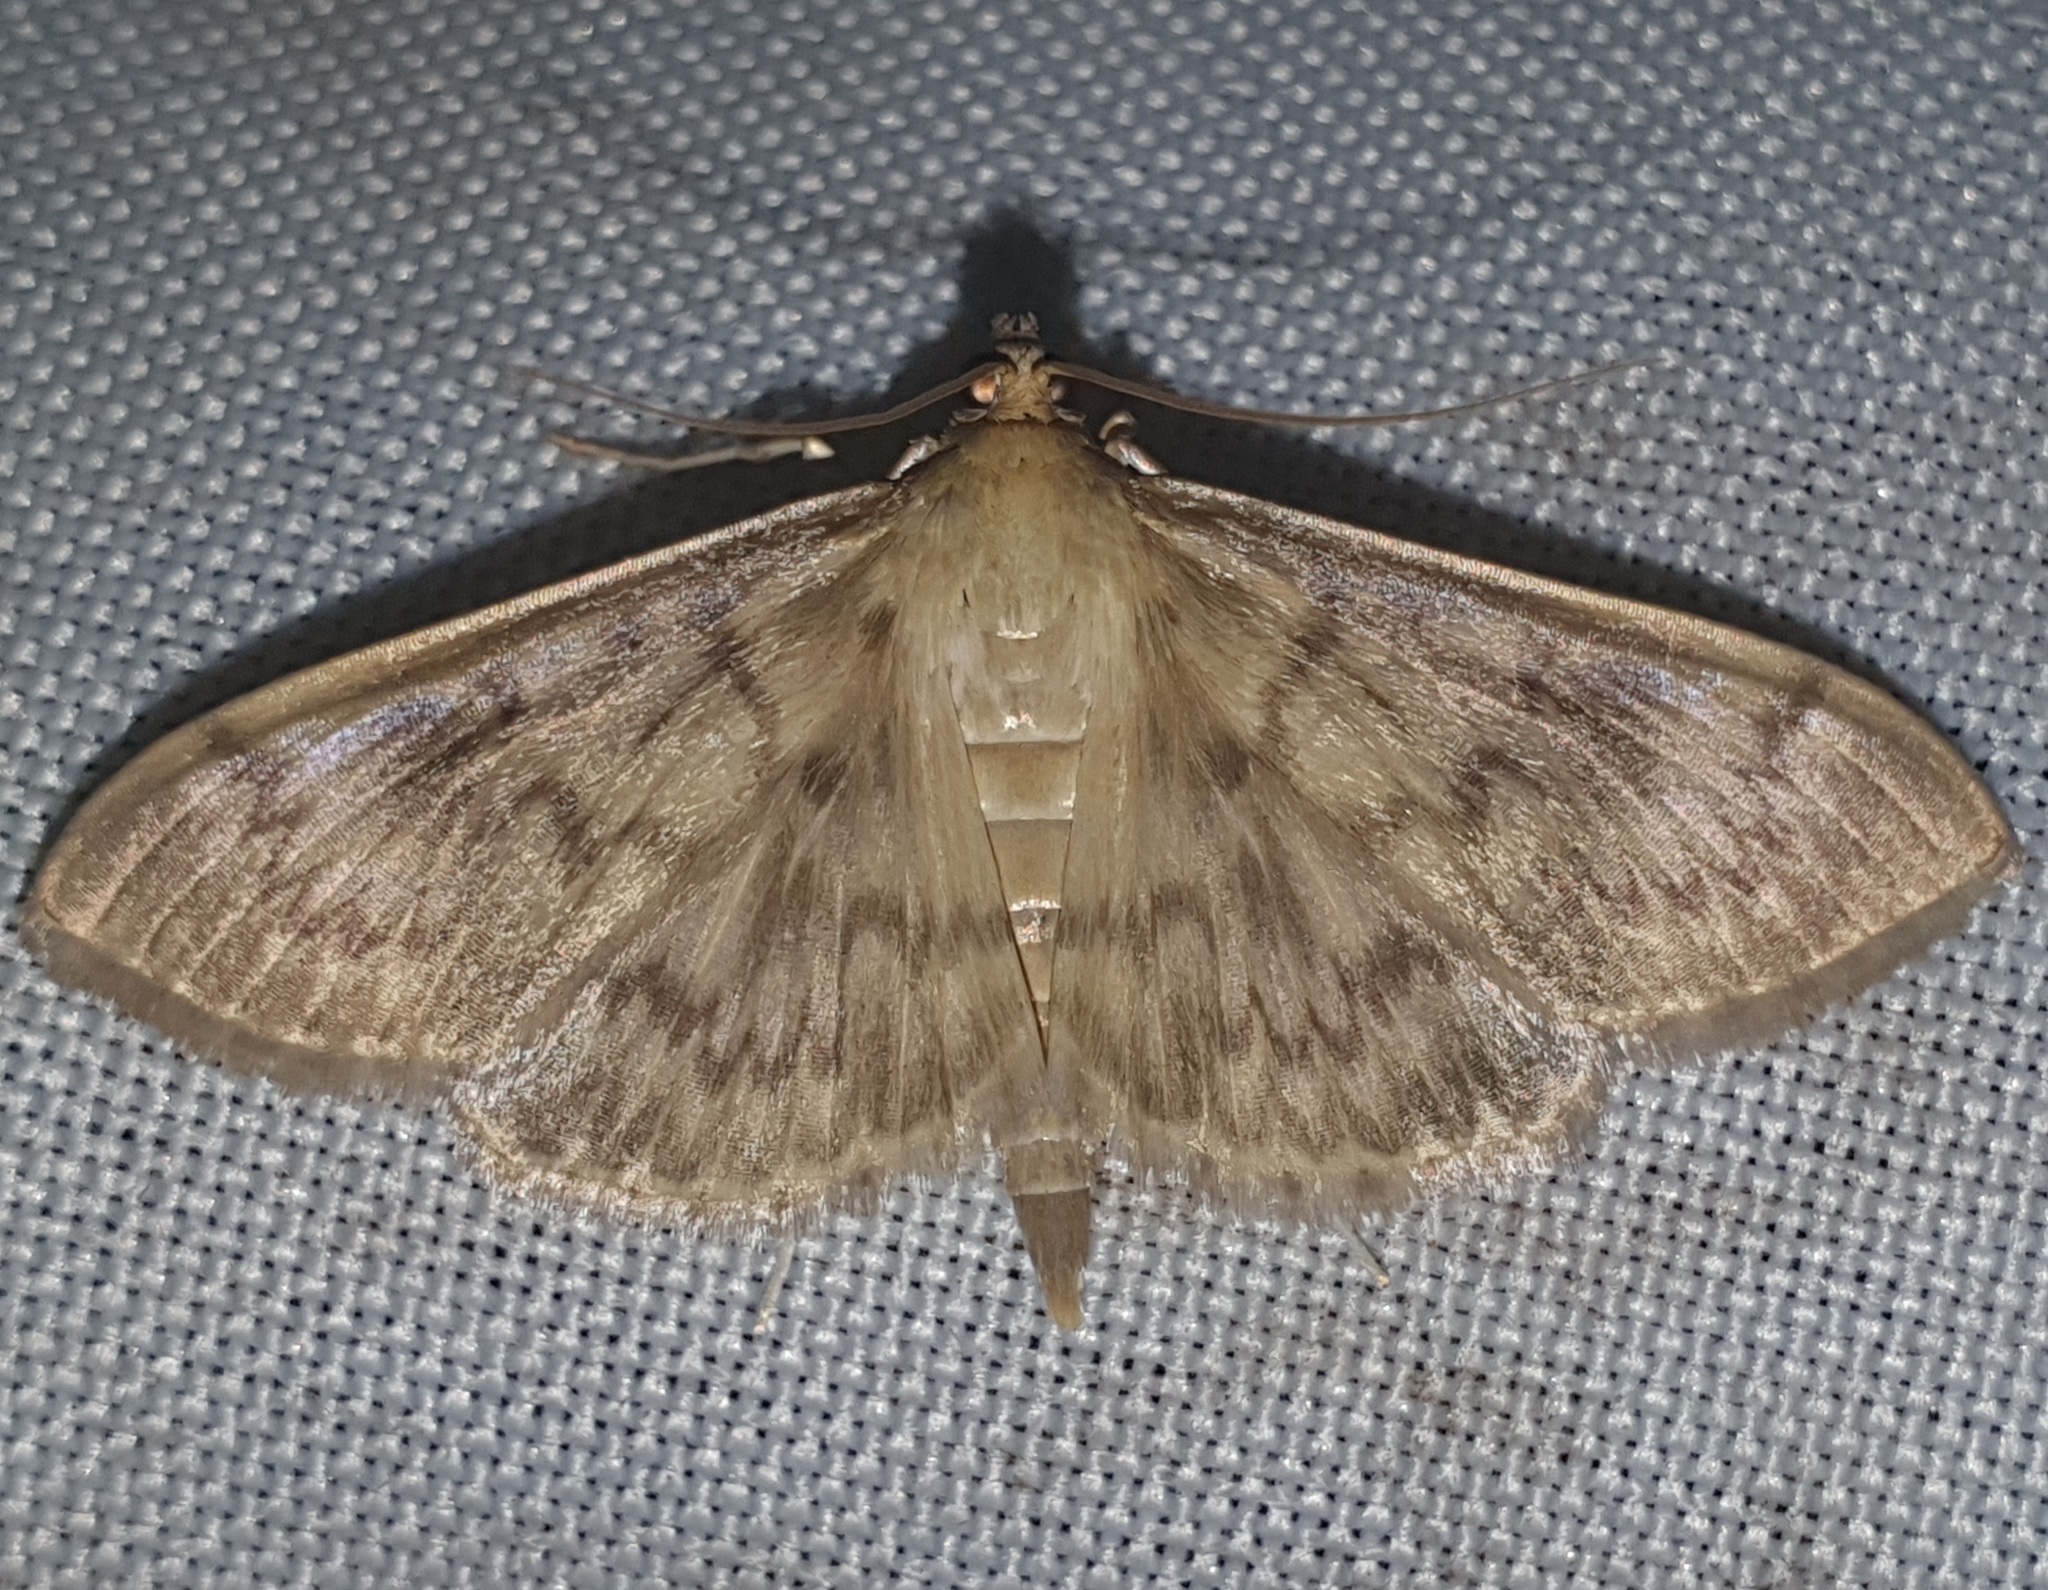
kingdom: Animalia
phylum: Arthropoda
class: Insecta
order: Lepidoptera
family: Crambidae
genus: Anania
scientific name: Anania lancealis
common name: Long-winged pearl
